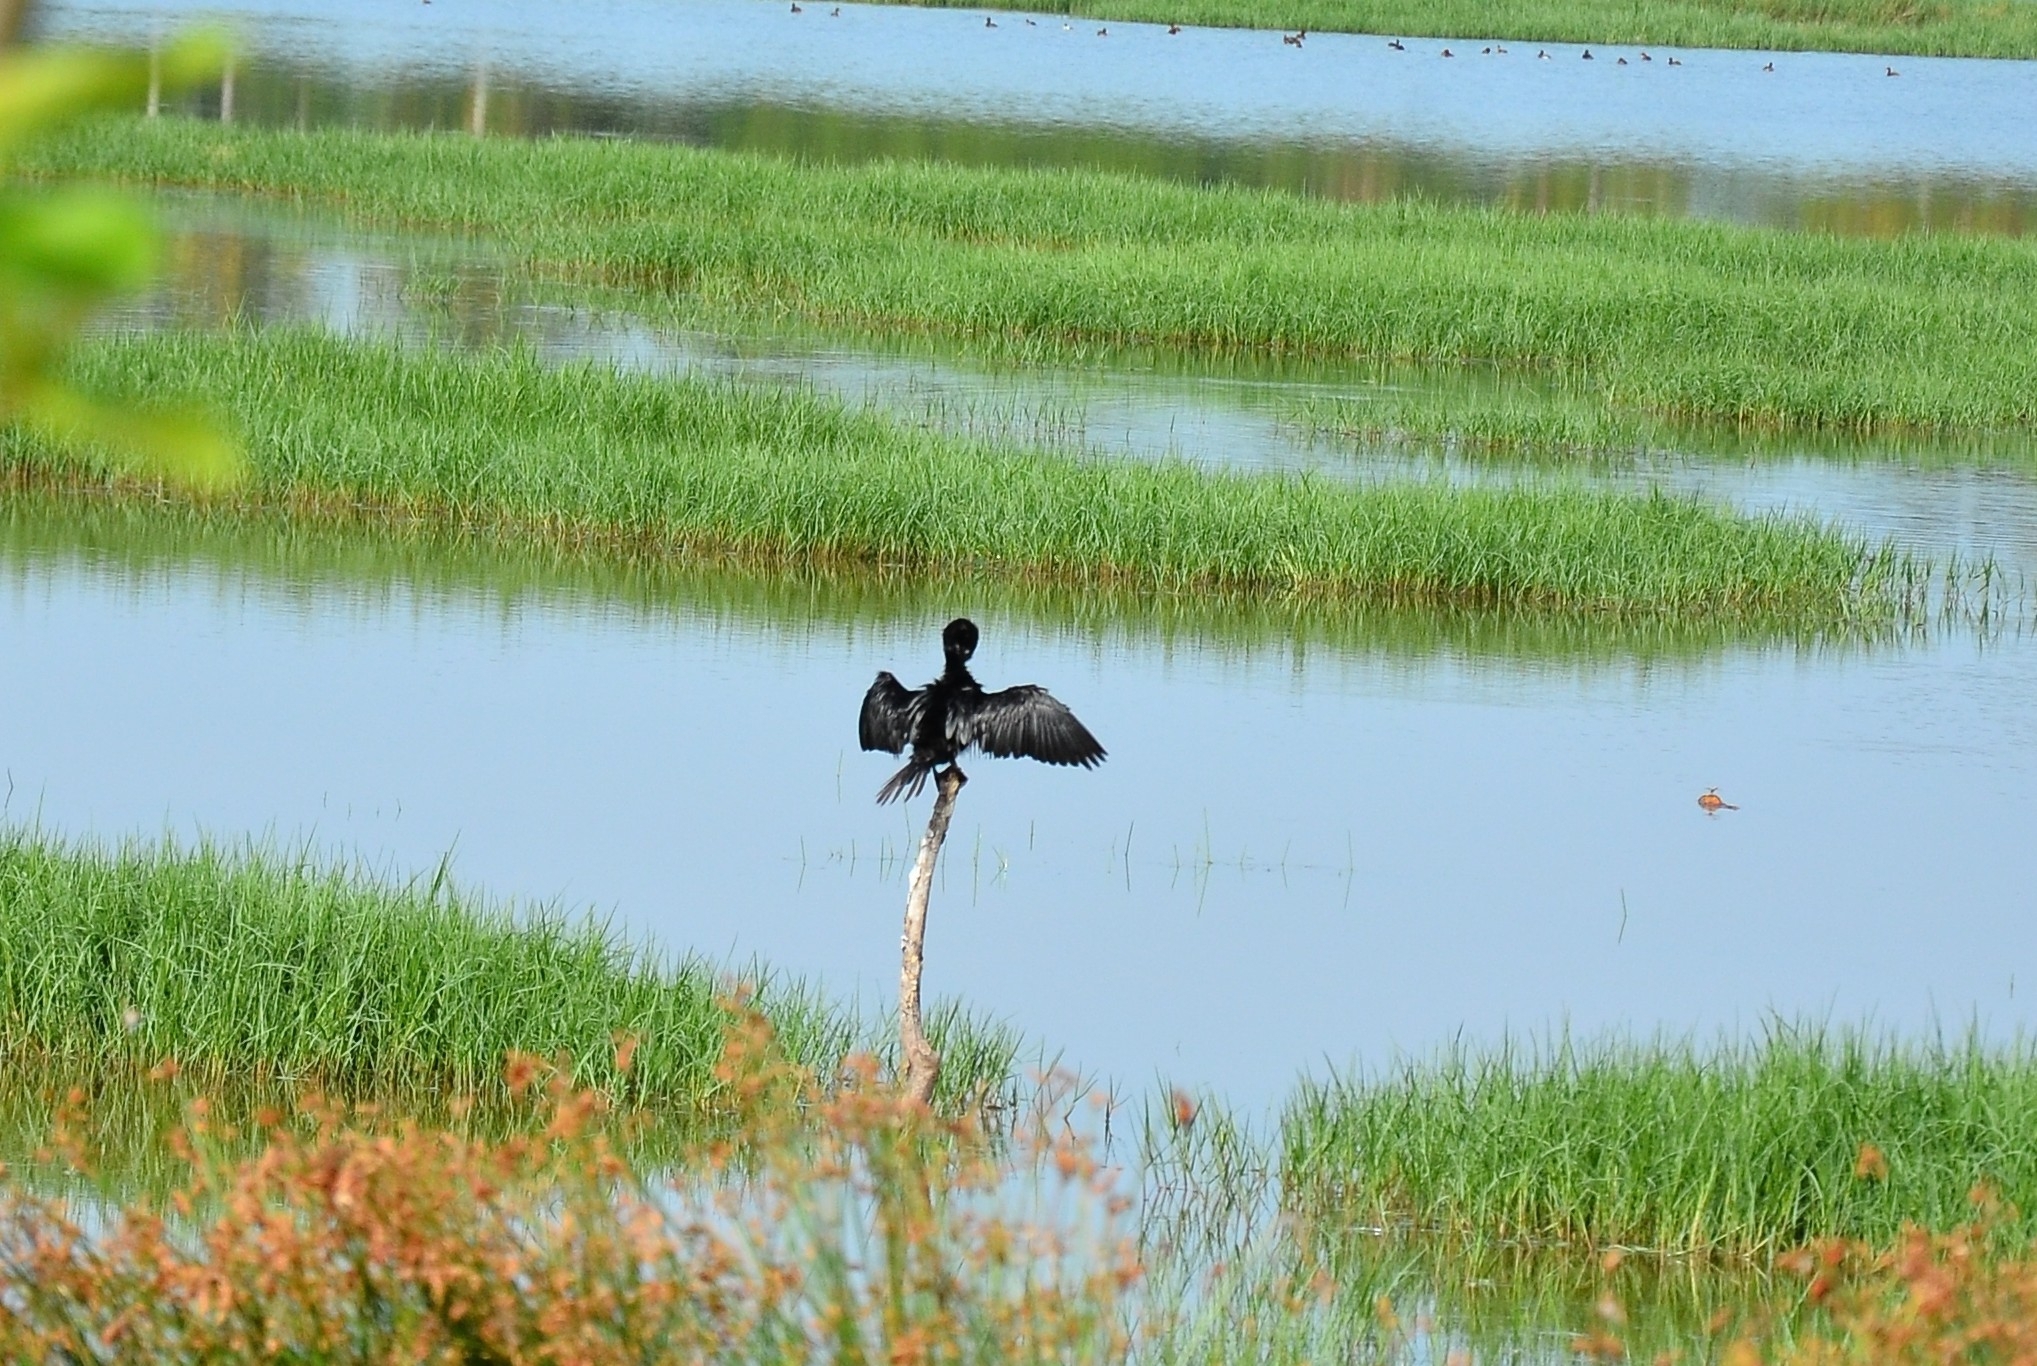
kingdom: Animalia
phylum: Chordata
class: Aves
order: Suliformes
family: Phalacrocoracidae
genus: Microcarbo
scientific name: Microcarbo niger
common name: Little cormorant
